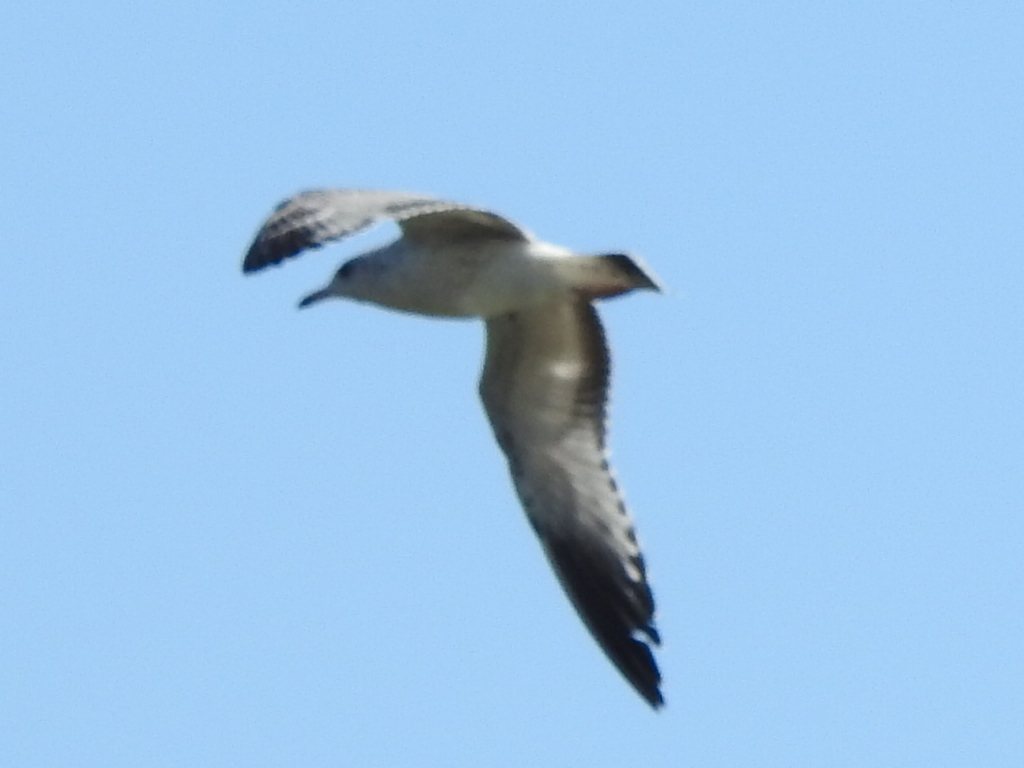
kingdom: Animalia
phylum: Chordata
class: Aves
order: Charadriiformes
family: Laridae
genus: Larus
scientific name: Larus delawarensis
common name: Ring-billed gull
